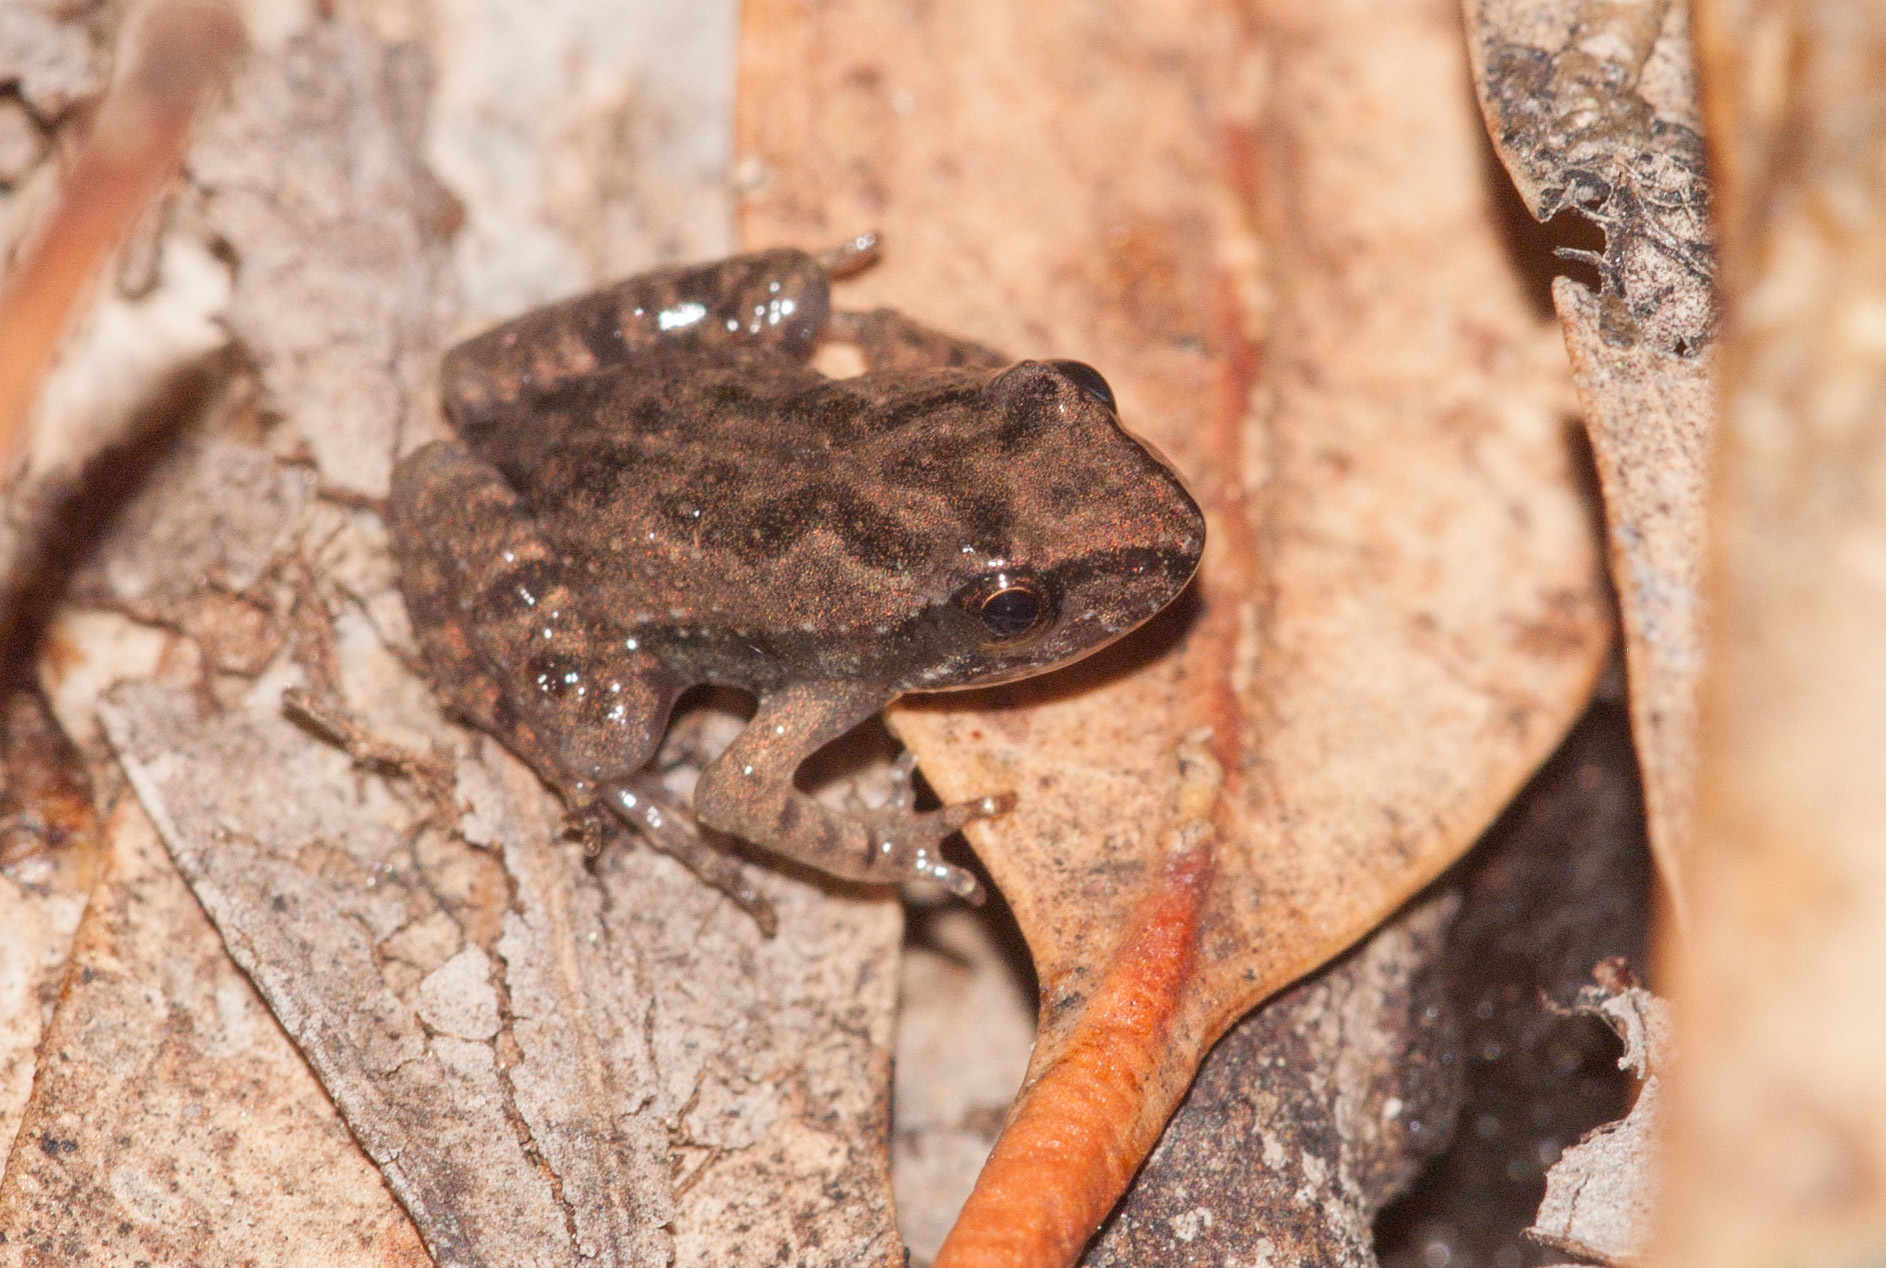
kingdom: Animalia
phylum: Chordata
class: Amphibia
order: Anura
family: Myobatrachidae
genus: Crinia
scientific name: Crinia riparia
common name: Streambank froglet
